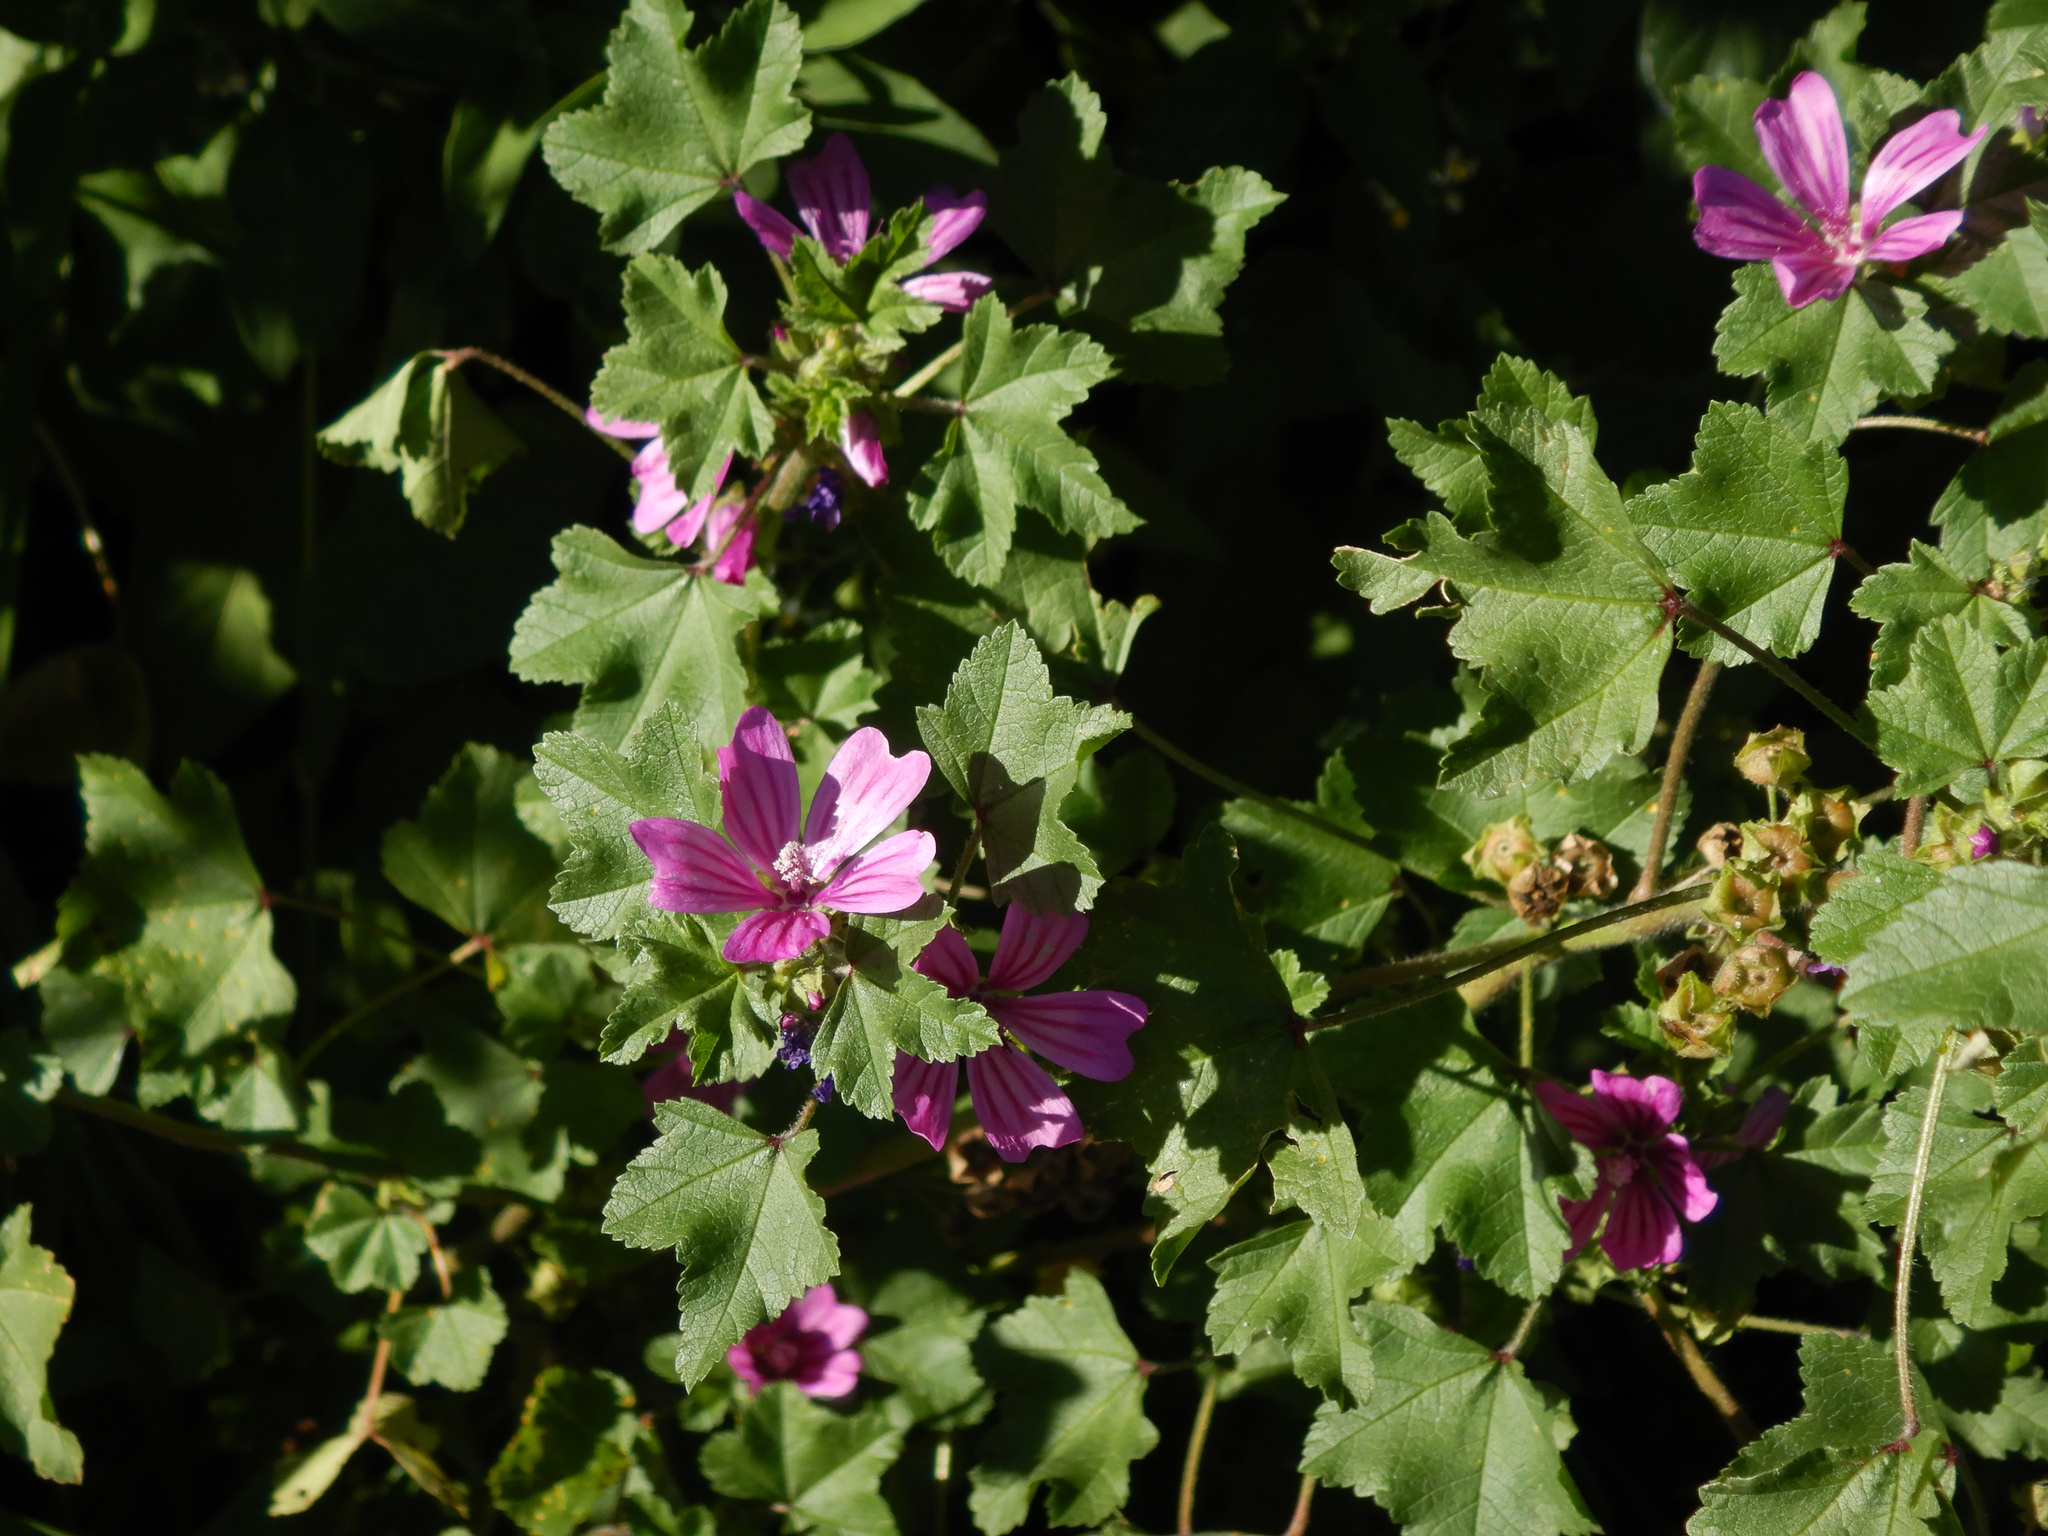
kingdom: Plantae
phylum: Tracheophyta
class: Magnoliopsida
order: Malvales
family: Malvaceae
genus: Malva
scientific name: Malva sylvestris
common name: Common mallow
